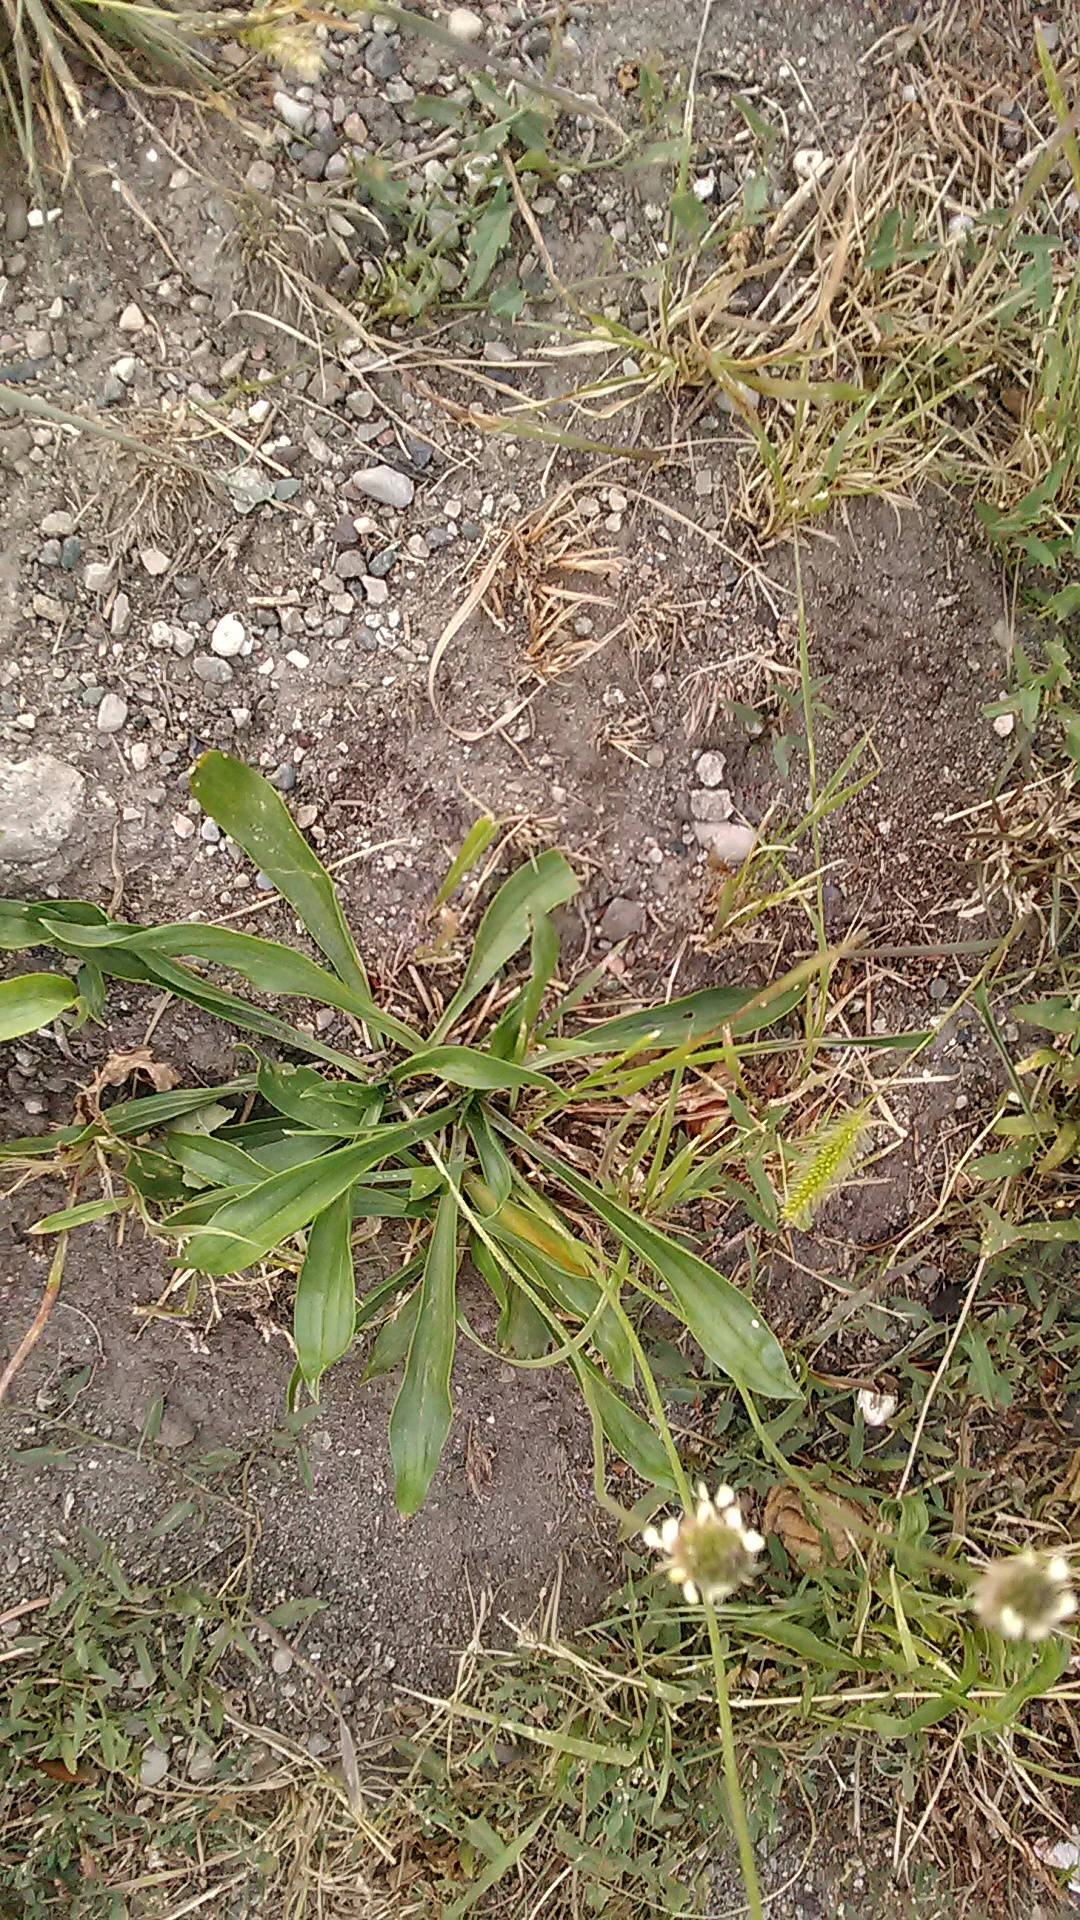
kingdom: Plantae
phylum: Tracheophyta
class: Magnoliopsida
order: Lamiales
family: Plantaginaceae
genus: Plantago
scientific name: Plantago lanceolata
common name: Ribwort plantain
